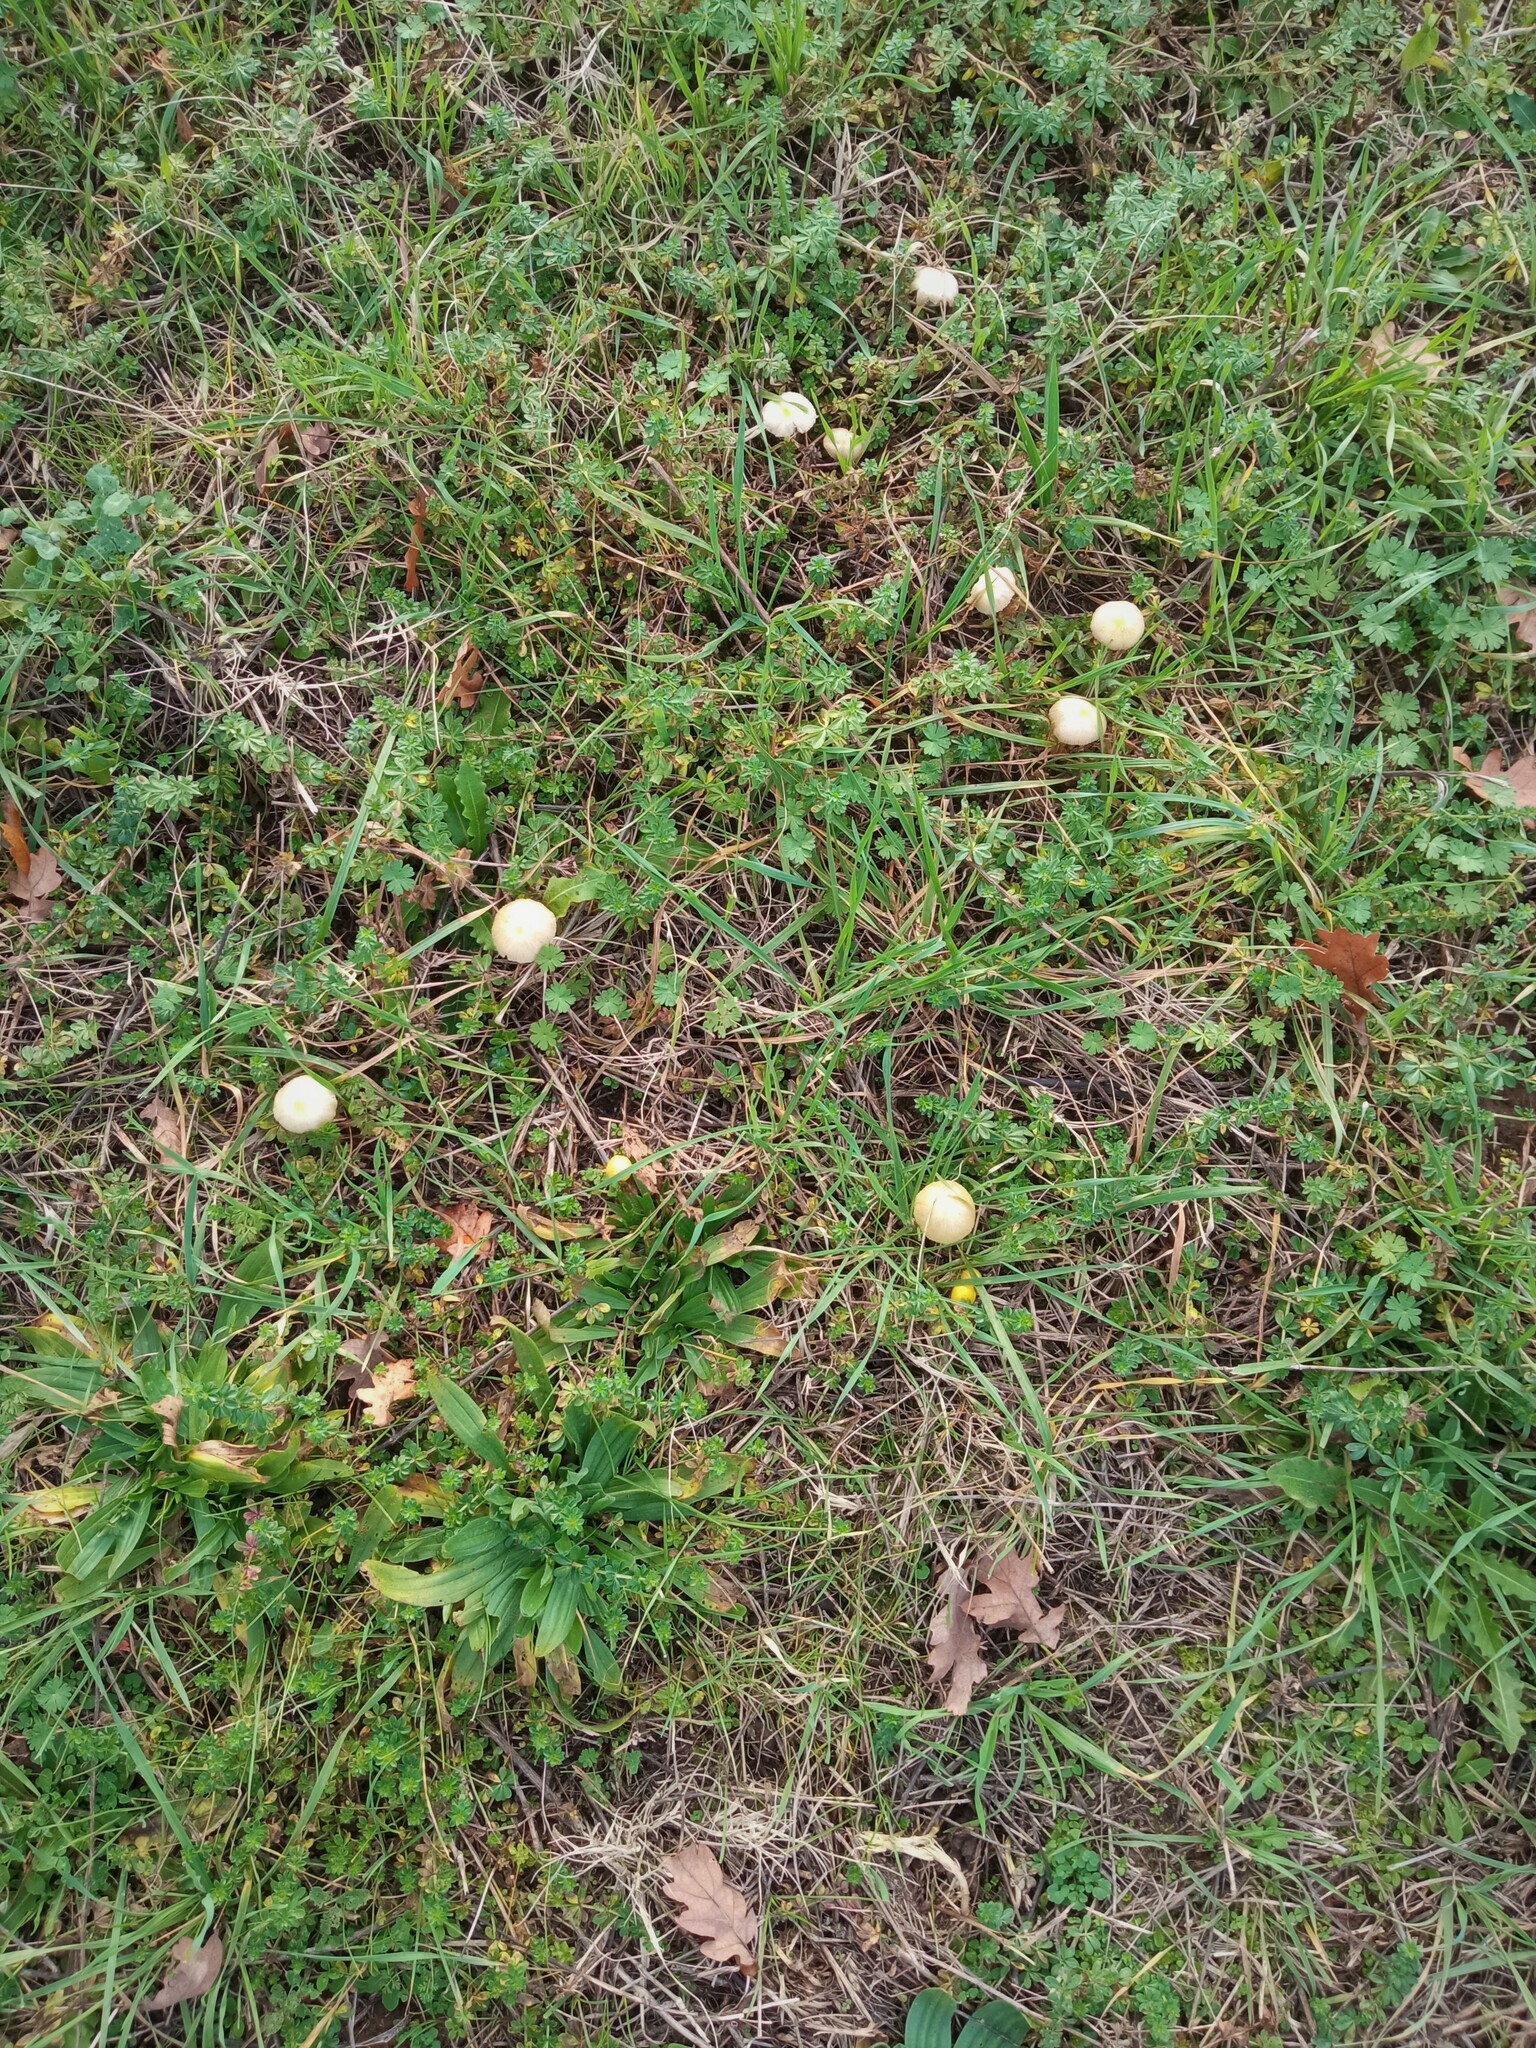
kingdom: Fungi
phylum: Basidiomycota
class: Agaricomycetes
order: Agaricales
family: Bolbitiaceae
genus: Bolbitius
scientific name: Bolbitius titubans
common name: Yellow fieldcap
